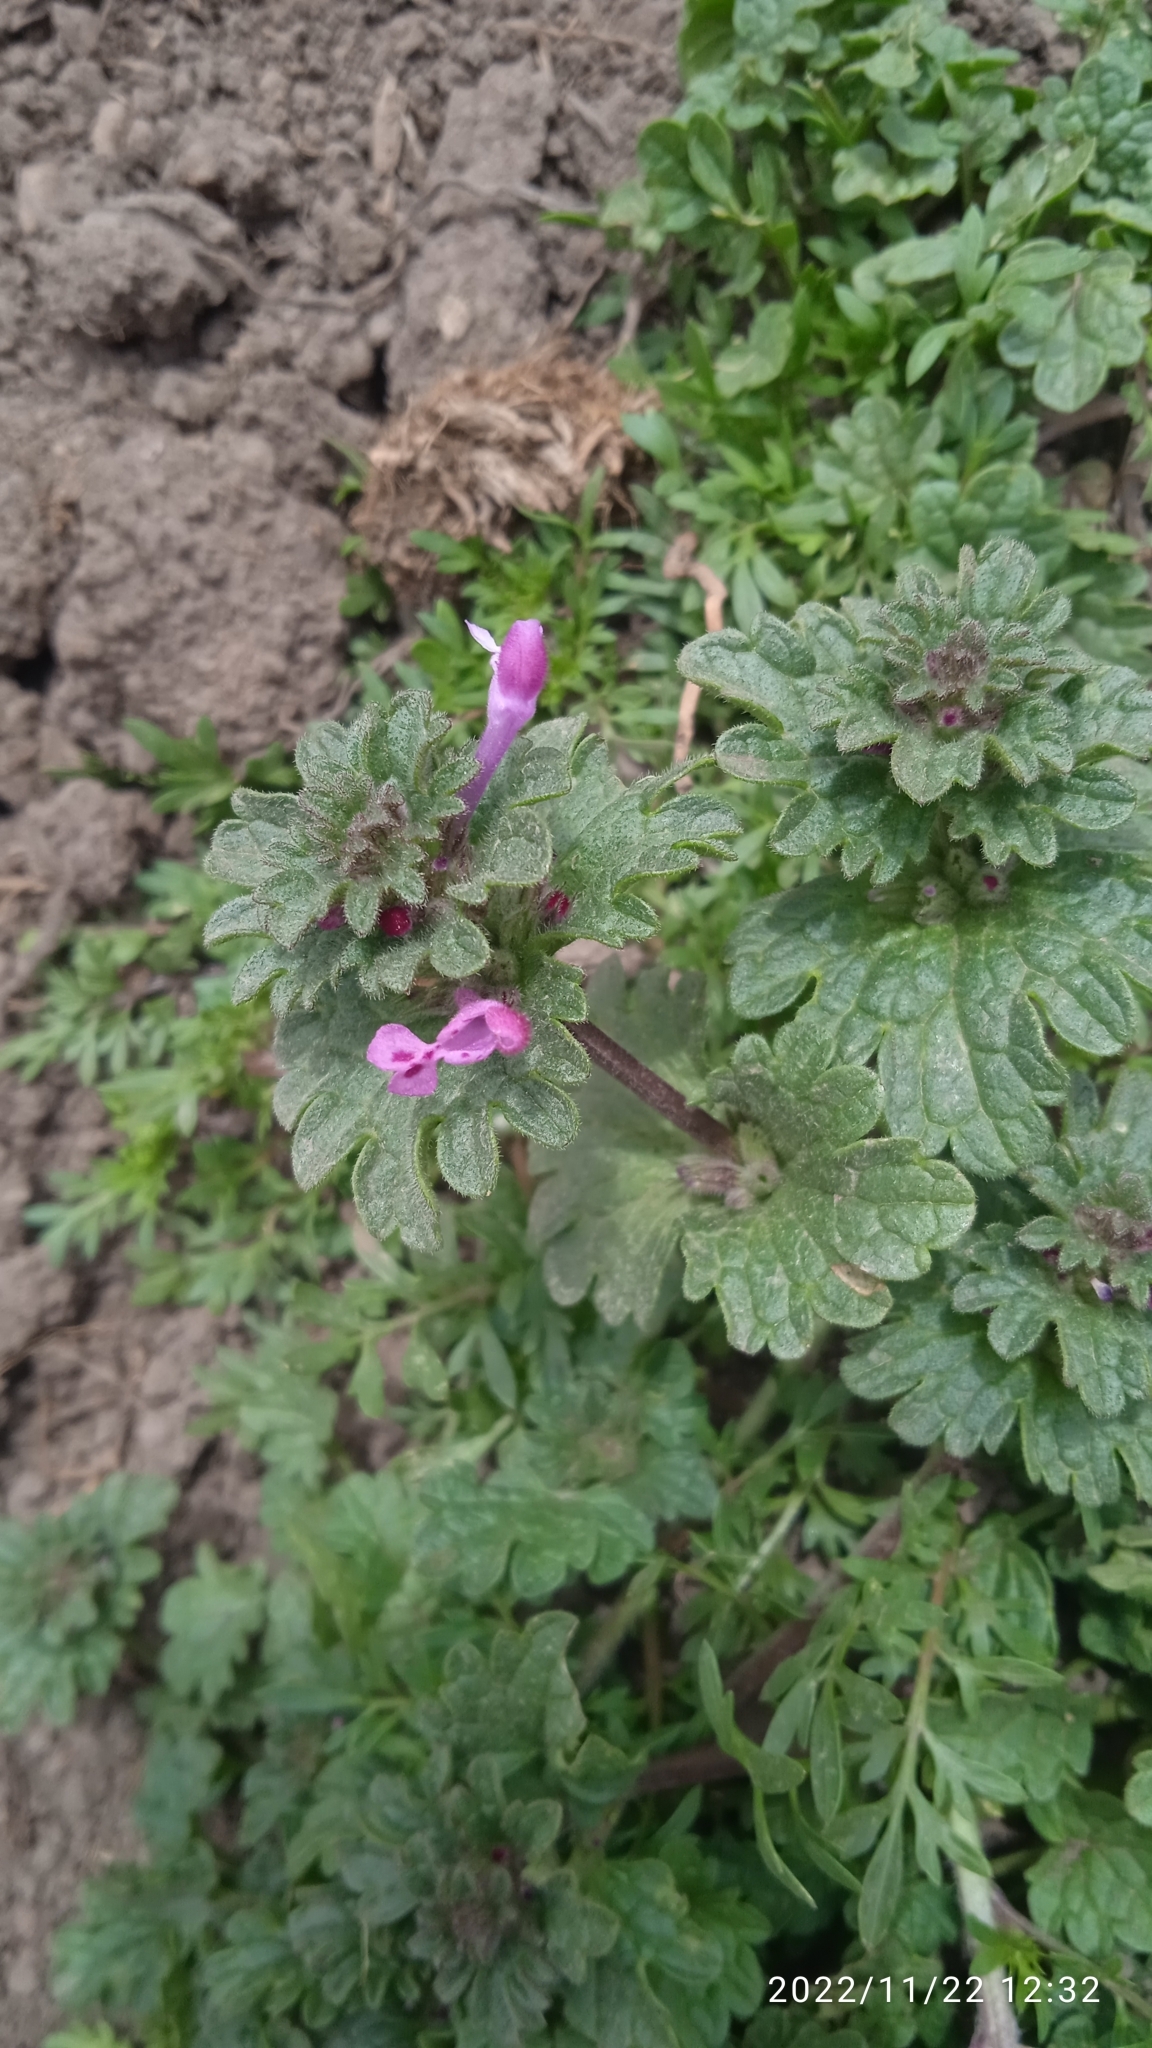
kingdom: Plantae
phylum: Tracheophyta
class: Magnoliopsida
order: Lamiales
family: Lamiaceae
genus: Lamium
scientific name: Lamium amplexicaule
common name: Henbit dead-nettle
